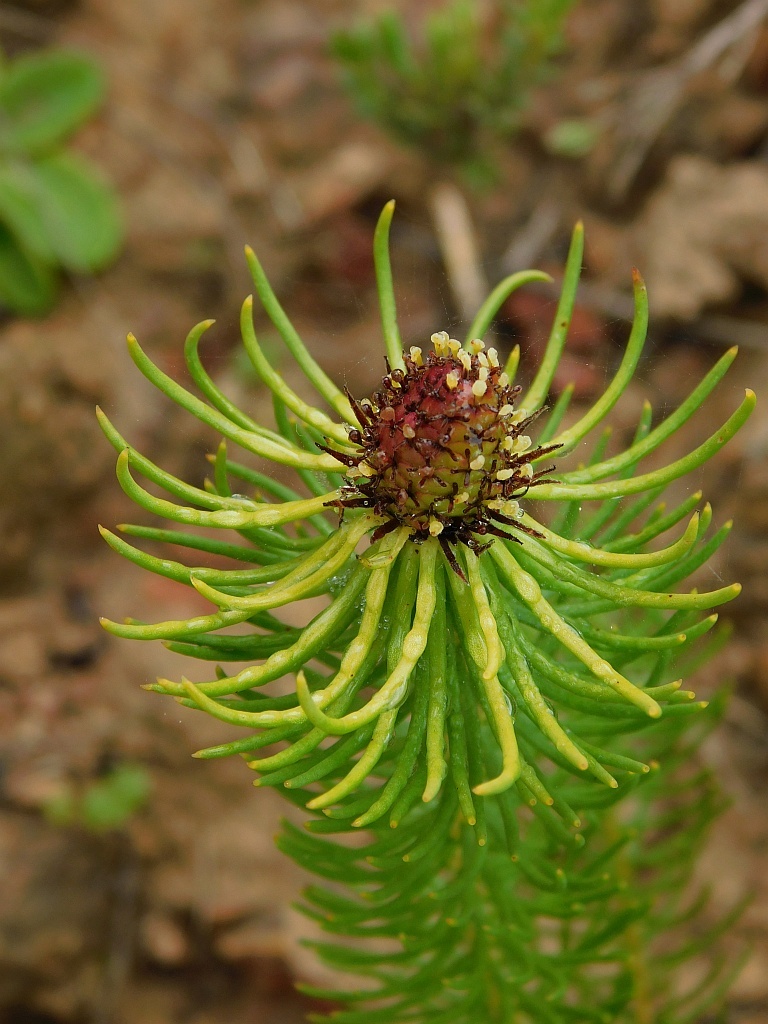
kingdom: Plantae
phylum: Tracheophyta
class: Magnoliopsida
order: Proteales
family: Proteaceae
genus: Leucadendron
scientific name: Leucadendron teretifolium
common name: Needle-leaf conebush
